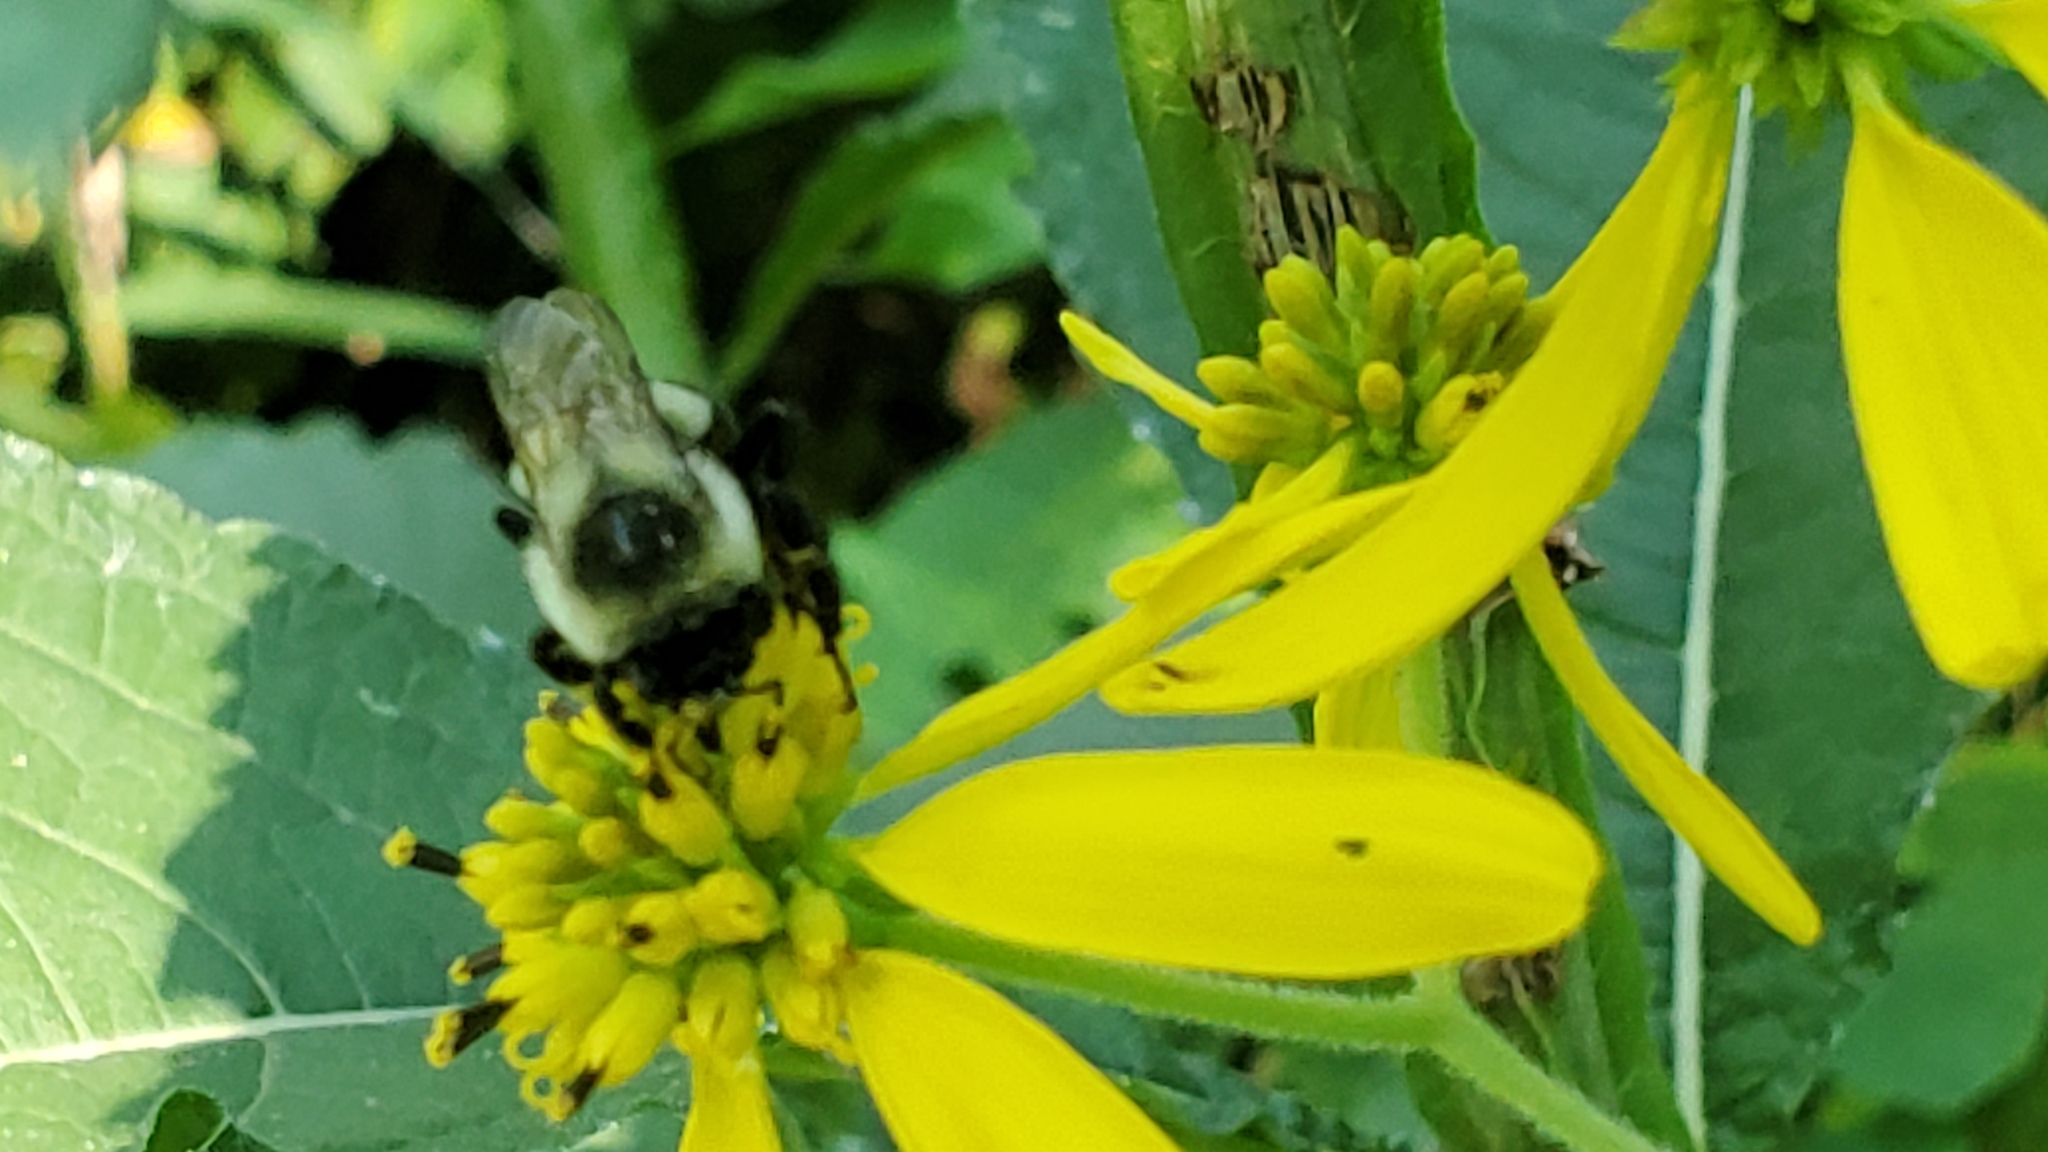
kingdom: Animalia
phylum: Arthropoda
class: Insecta
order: Hymenoptera
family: Apidae
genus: Bombus
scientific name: Bombus impatiens
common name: Common eastern bumble bee
